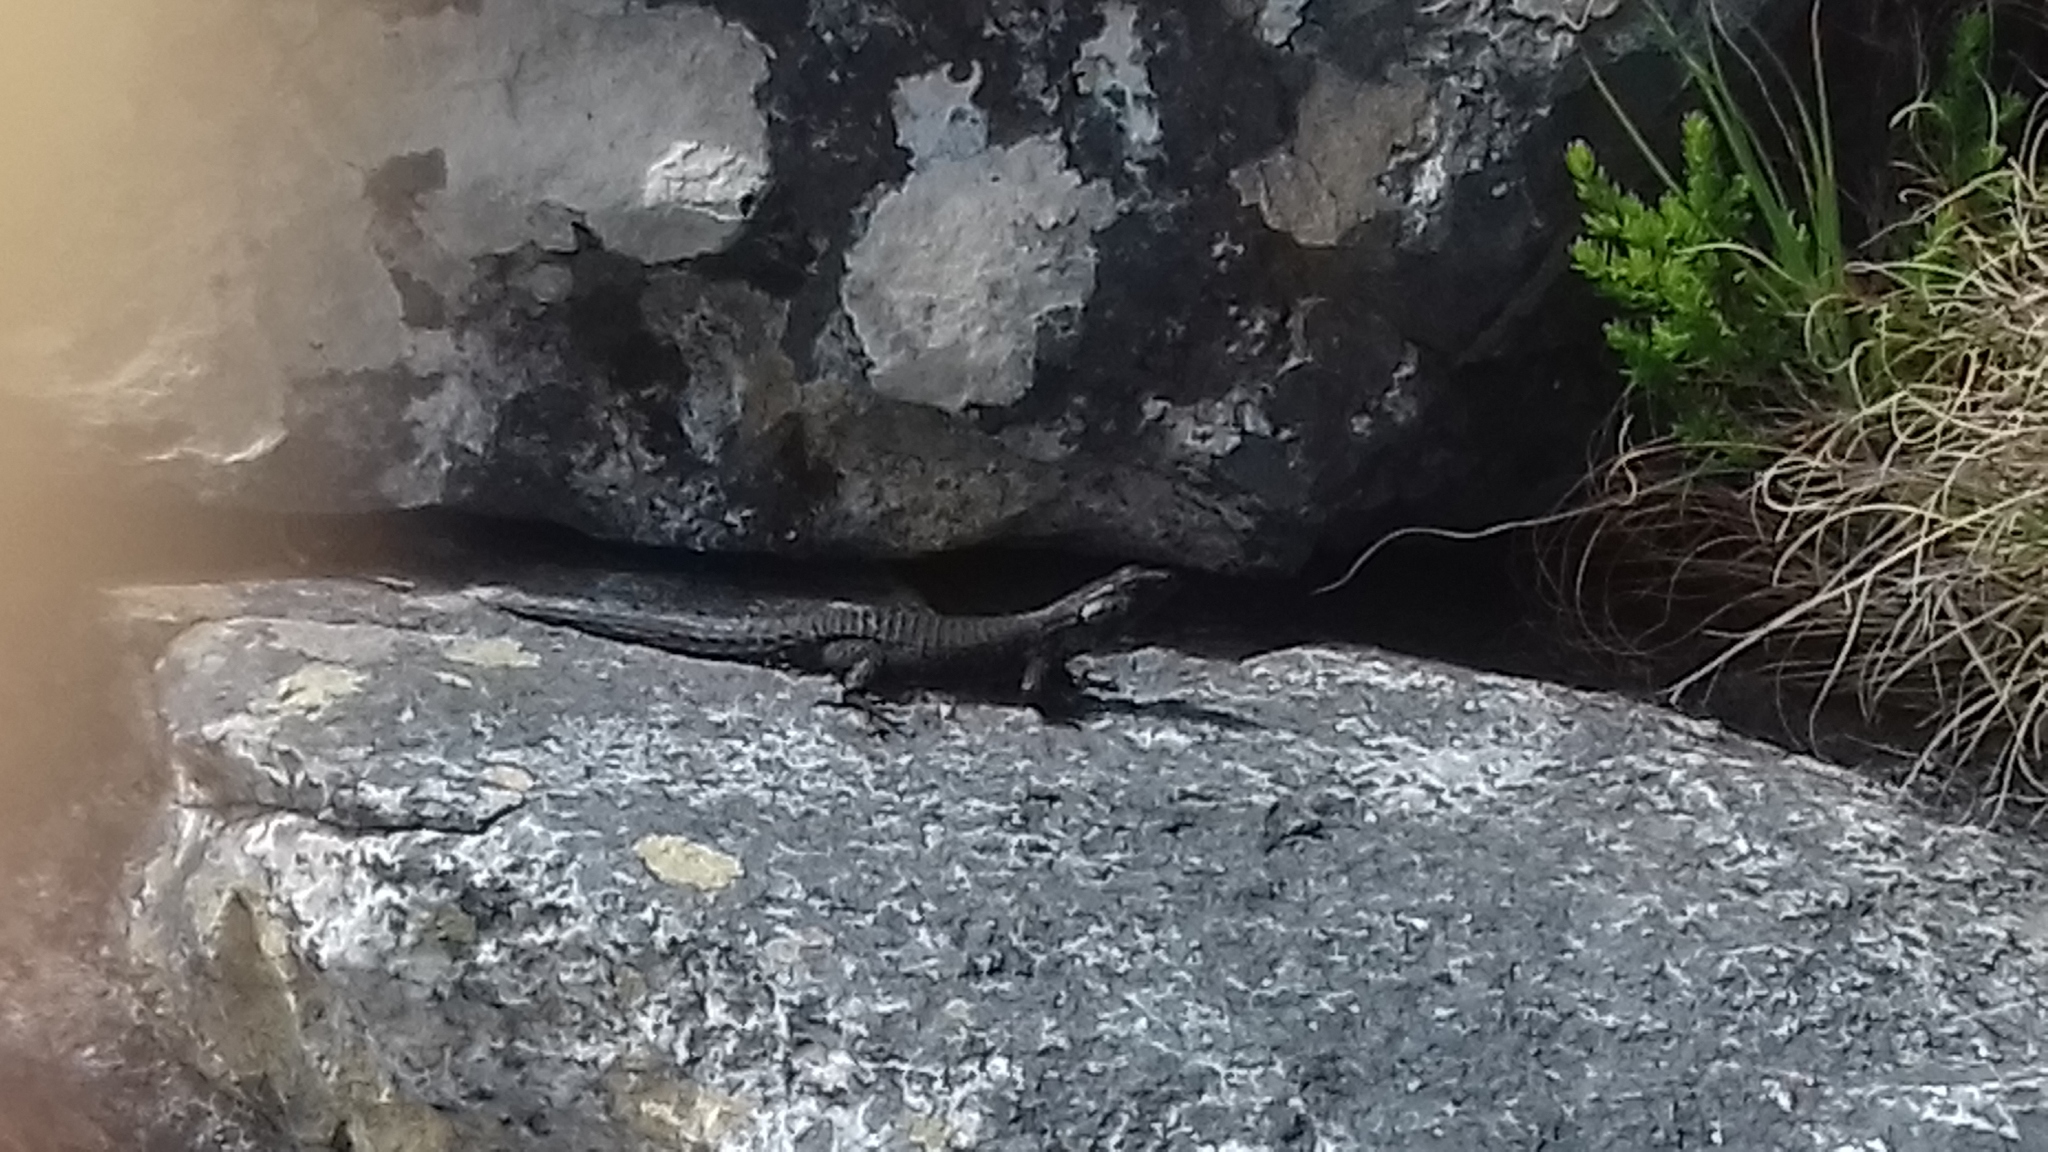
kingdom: Animalia
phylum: Chordata
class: Squamata
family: Cordylidae
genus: Cordylus
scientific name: Cordylus niger
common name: Black girdled lizard
